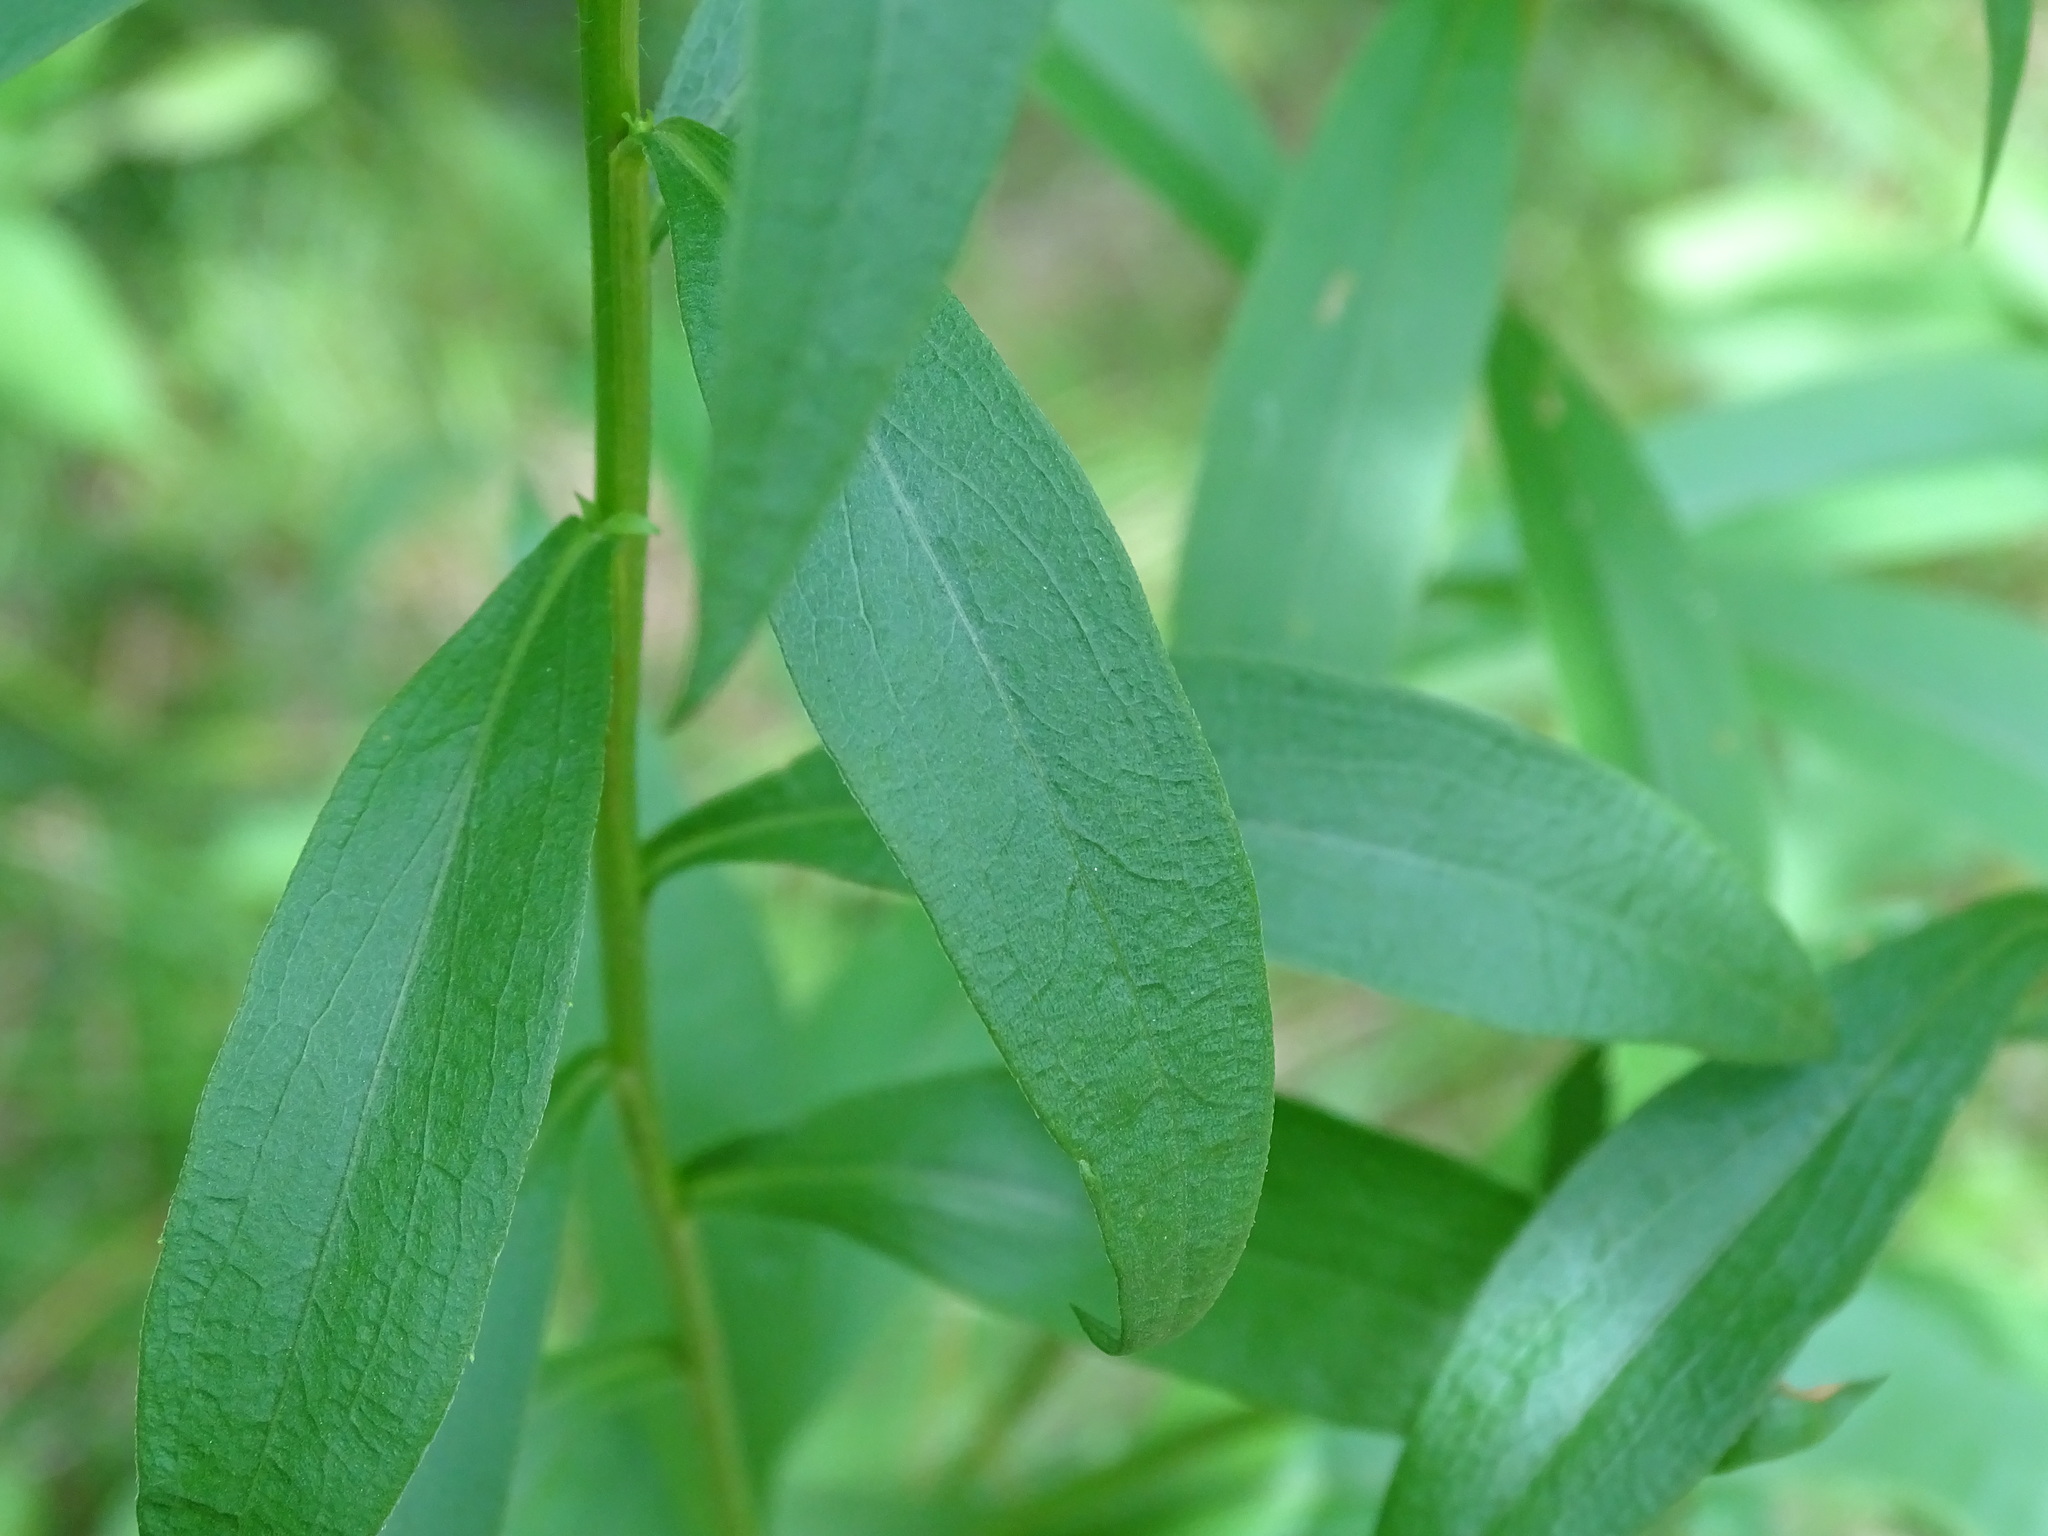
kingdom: Plantae
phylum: Tracheophyta
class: Magnoliopsida
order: Asterales
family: Asteraceae
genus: Solidago
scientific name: Solidago juncea
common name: Early goldenrod
